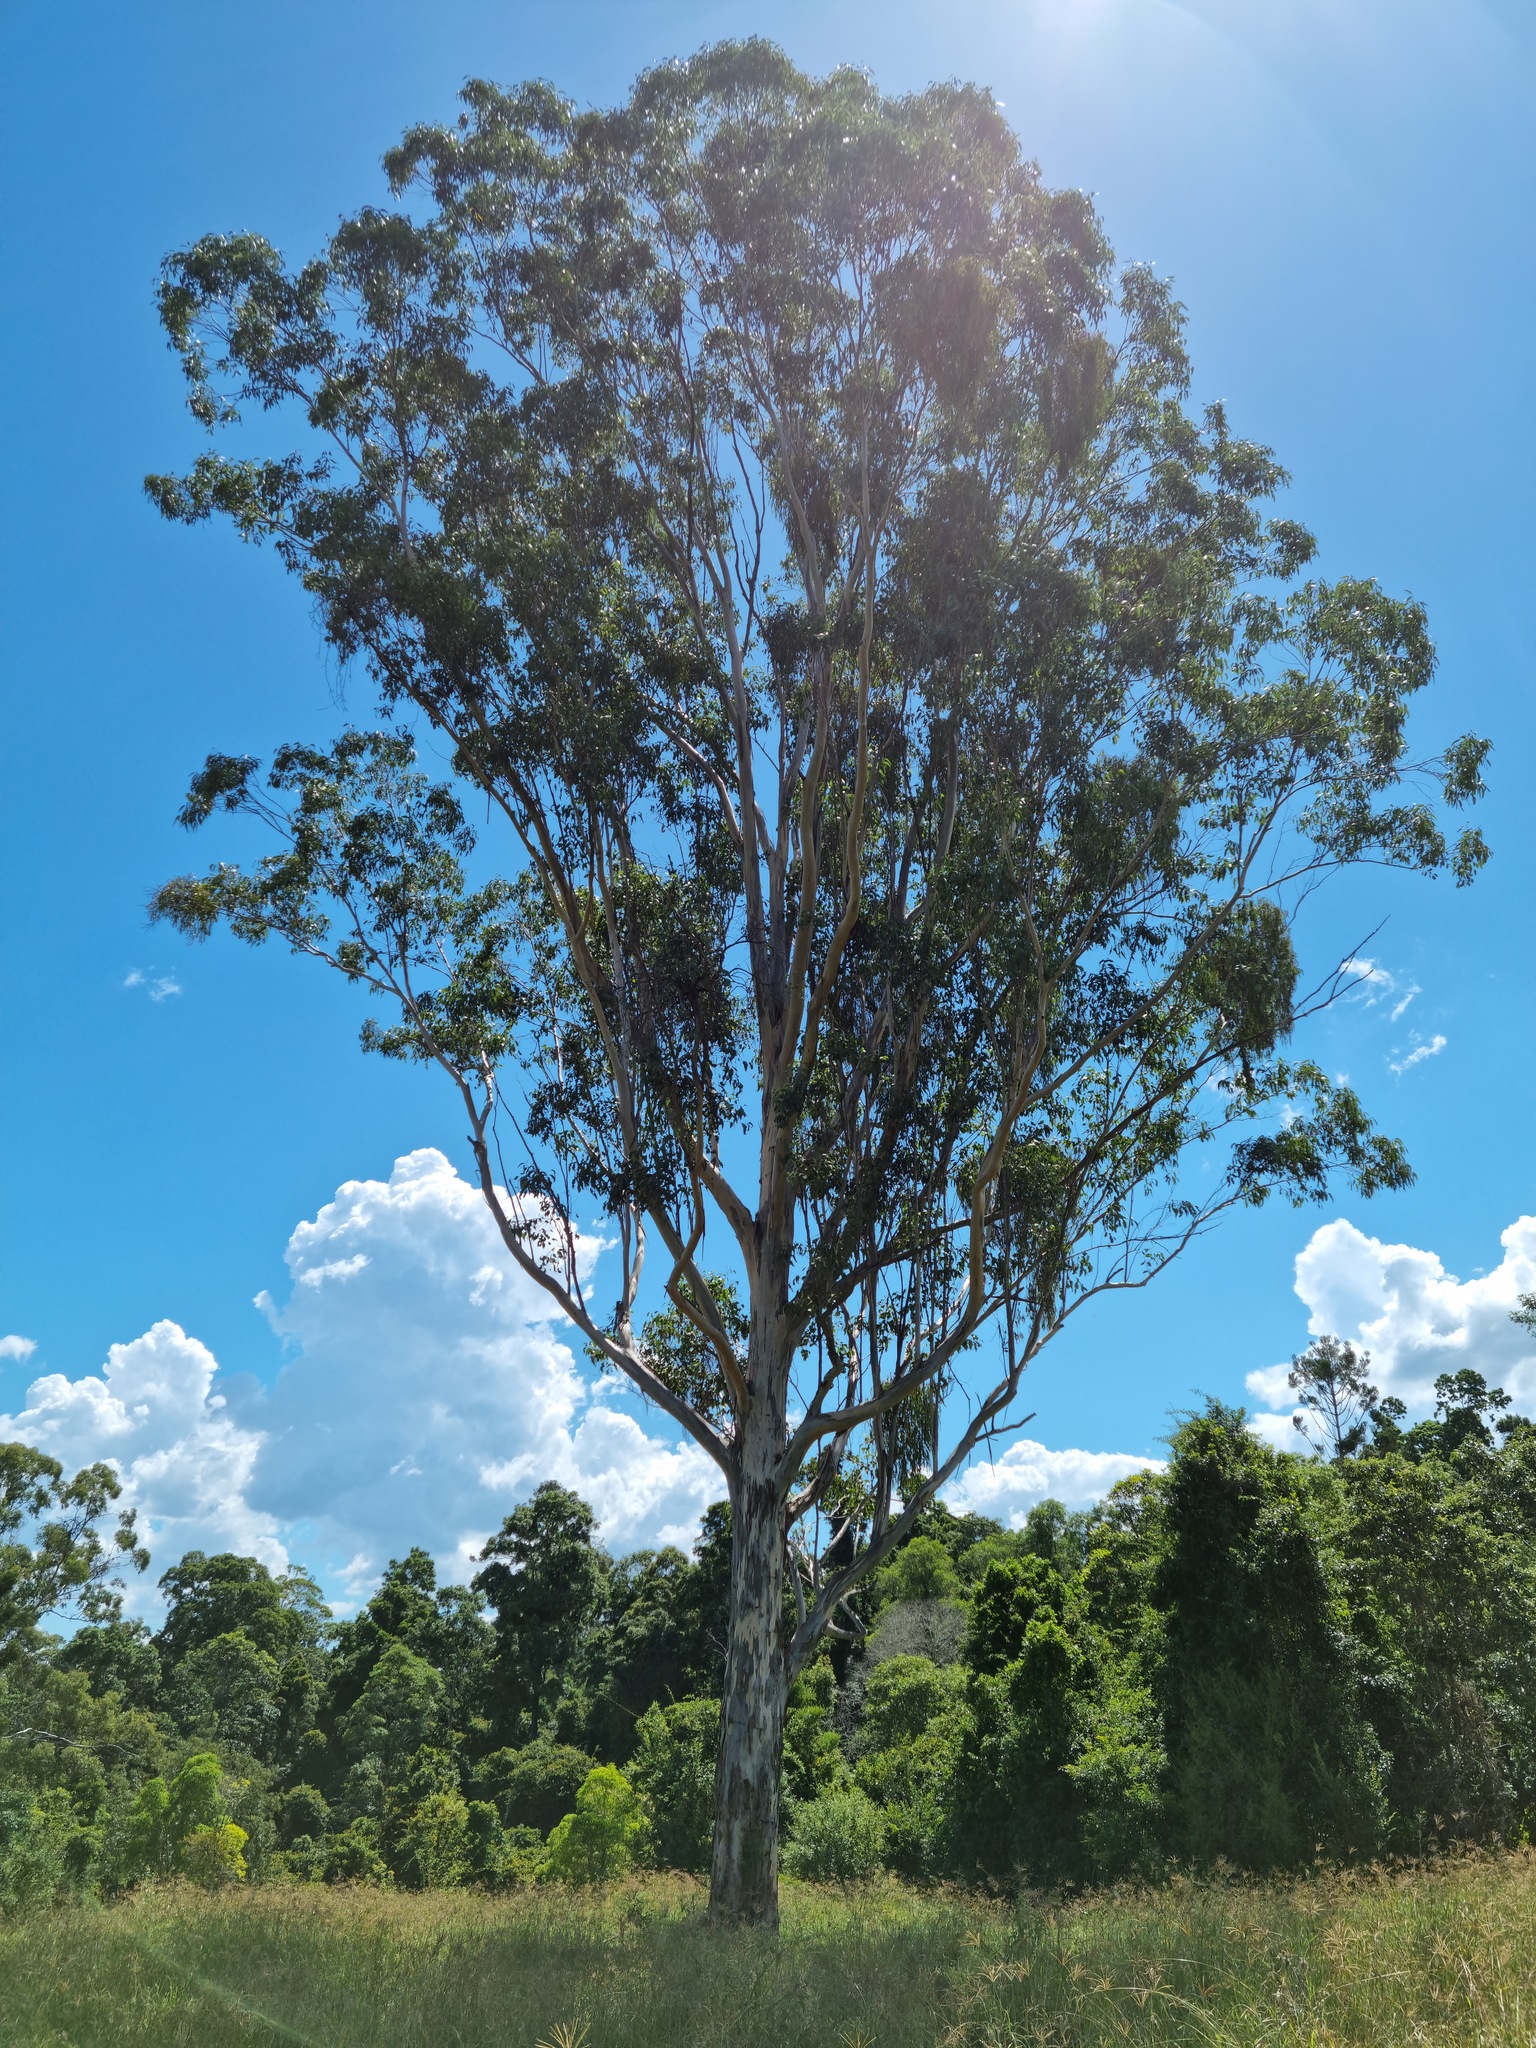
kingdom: Plantae
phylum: Tracheophyta
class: Magnoliopsida
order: Myrtales
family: Myrtaceae
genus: Eucalyptus
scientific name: Eucalyptus amplifolia
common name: Cabbage gum
